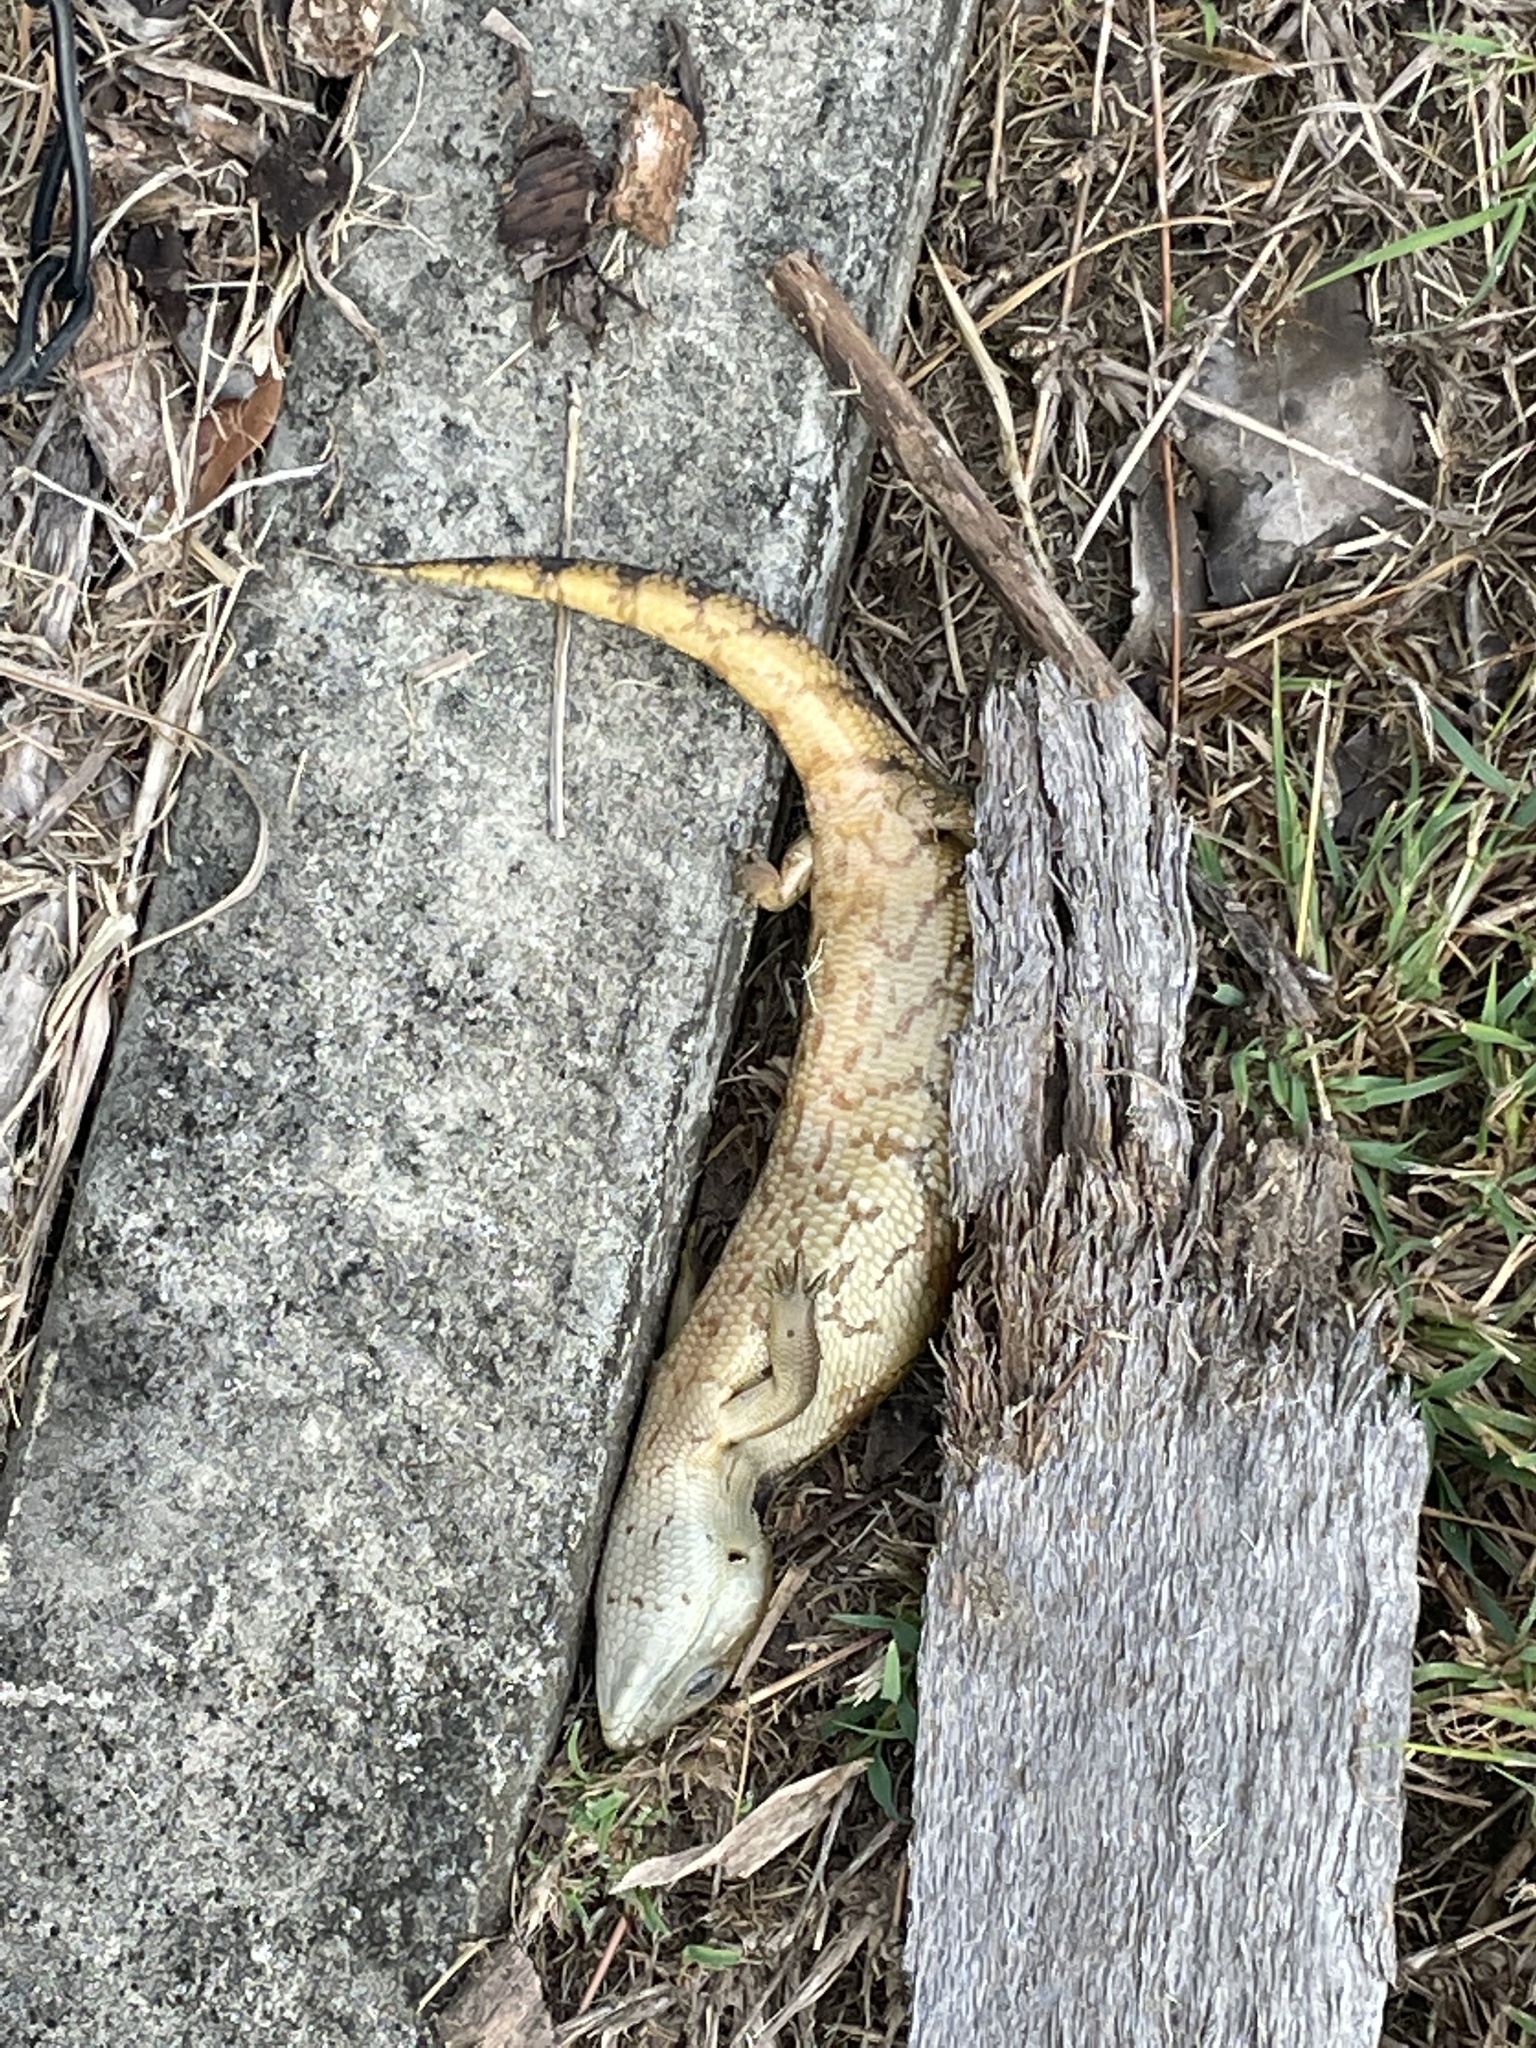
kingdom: Animalia
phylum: Chordata
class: Squamata
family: Scincidae
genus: Tiliqua
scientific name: Tiliqua scincoides
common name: Common bluetongue
